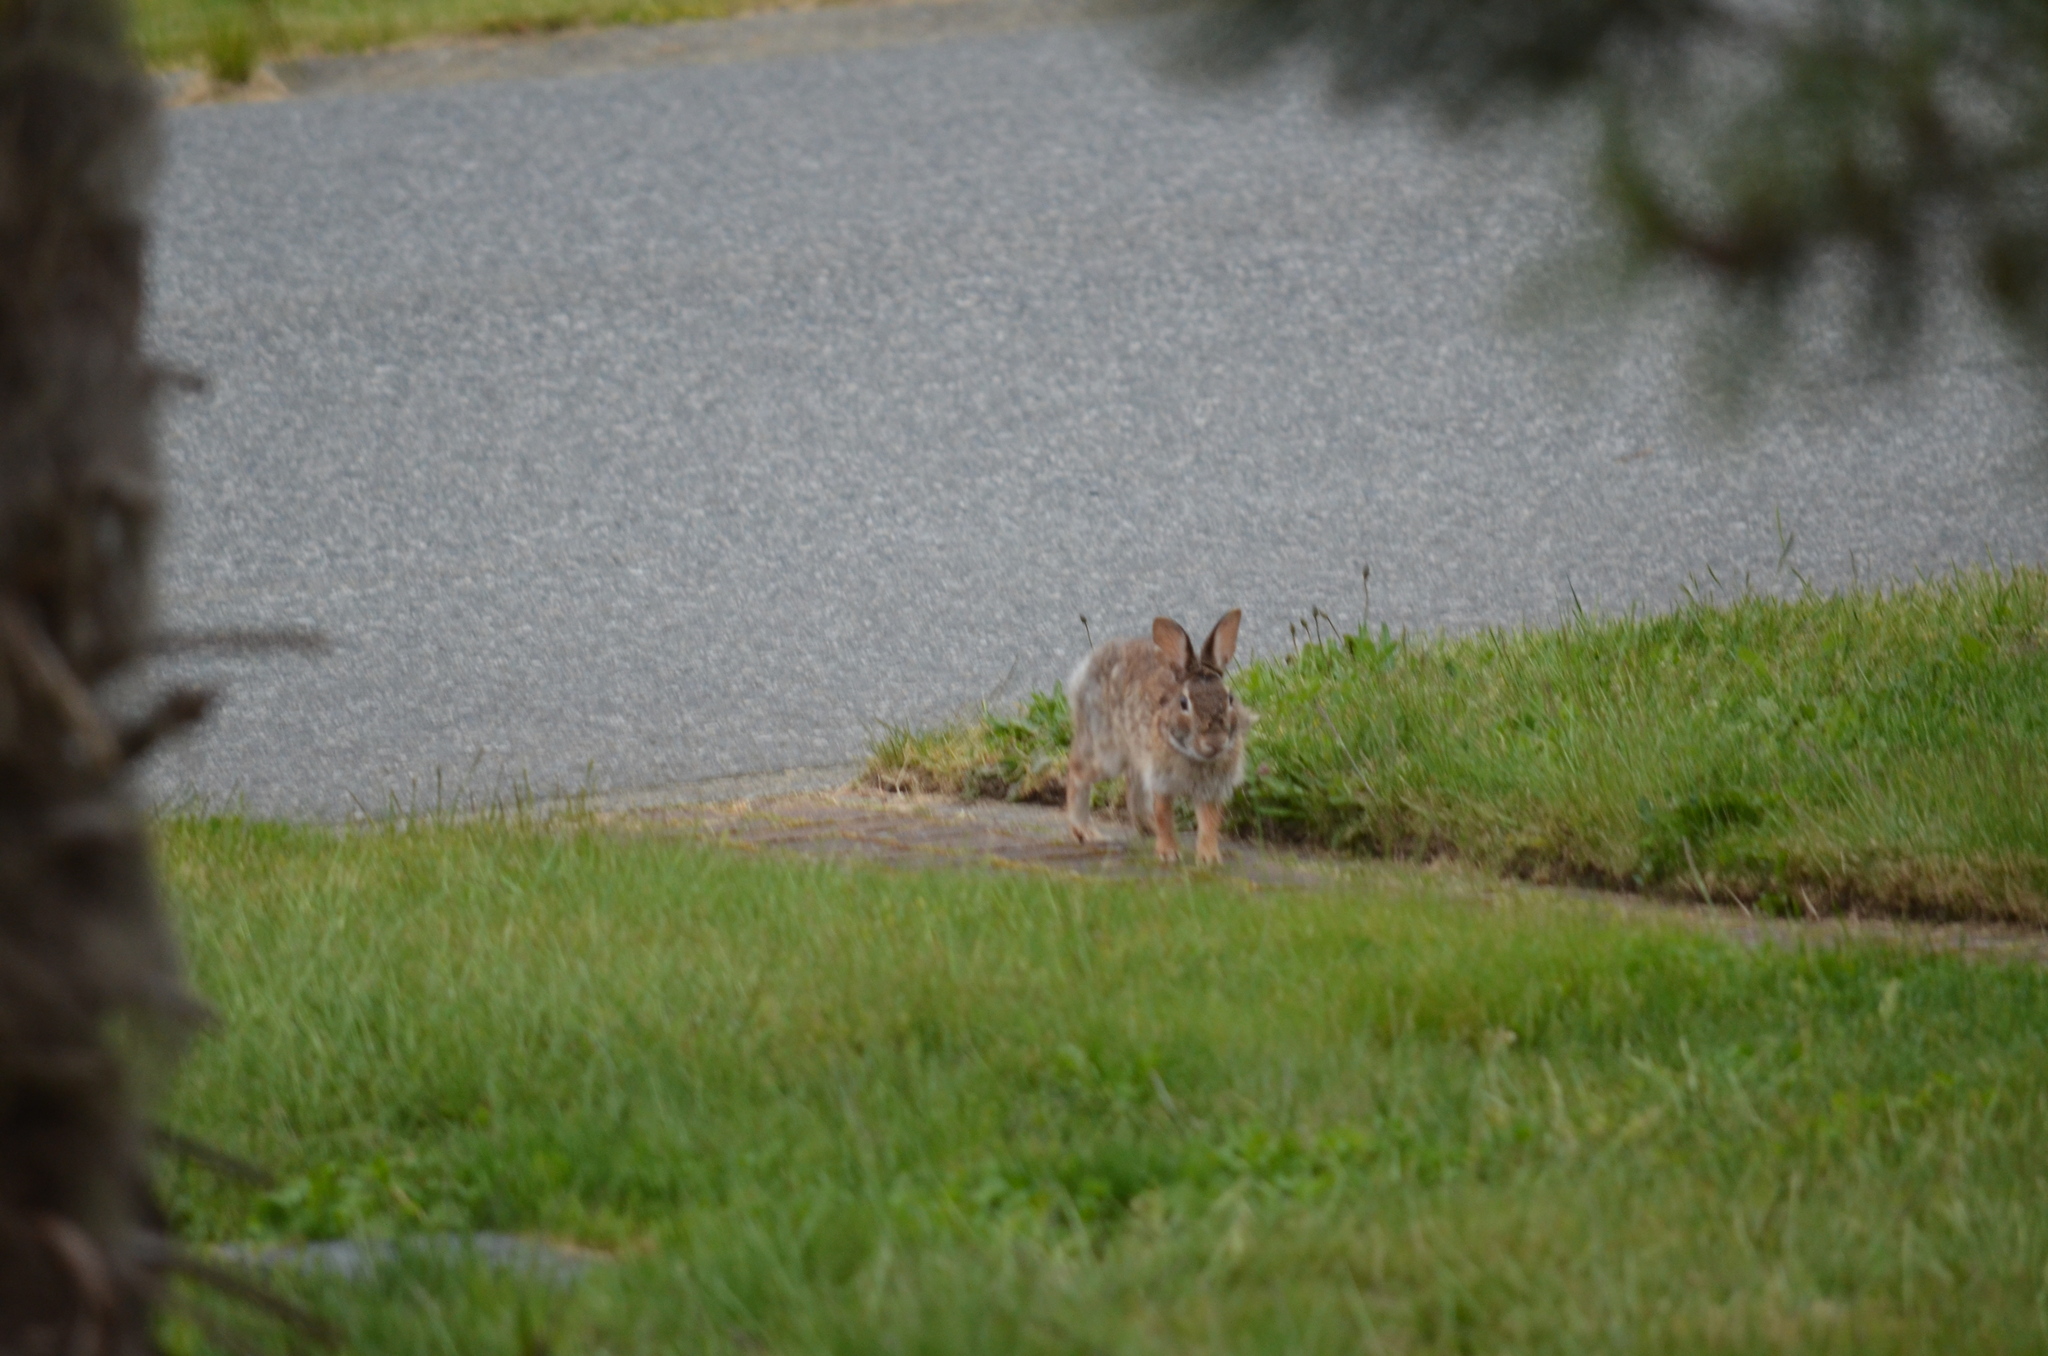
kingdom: Animalia
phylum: Chordata
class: Mammalia
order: Lagomorpha
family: Leporidae
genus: Sylvilagus
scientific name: Sylvilagus floridanus
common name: Eastern cottontail
